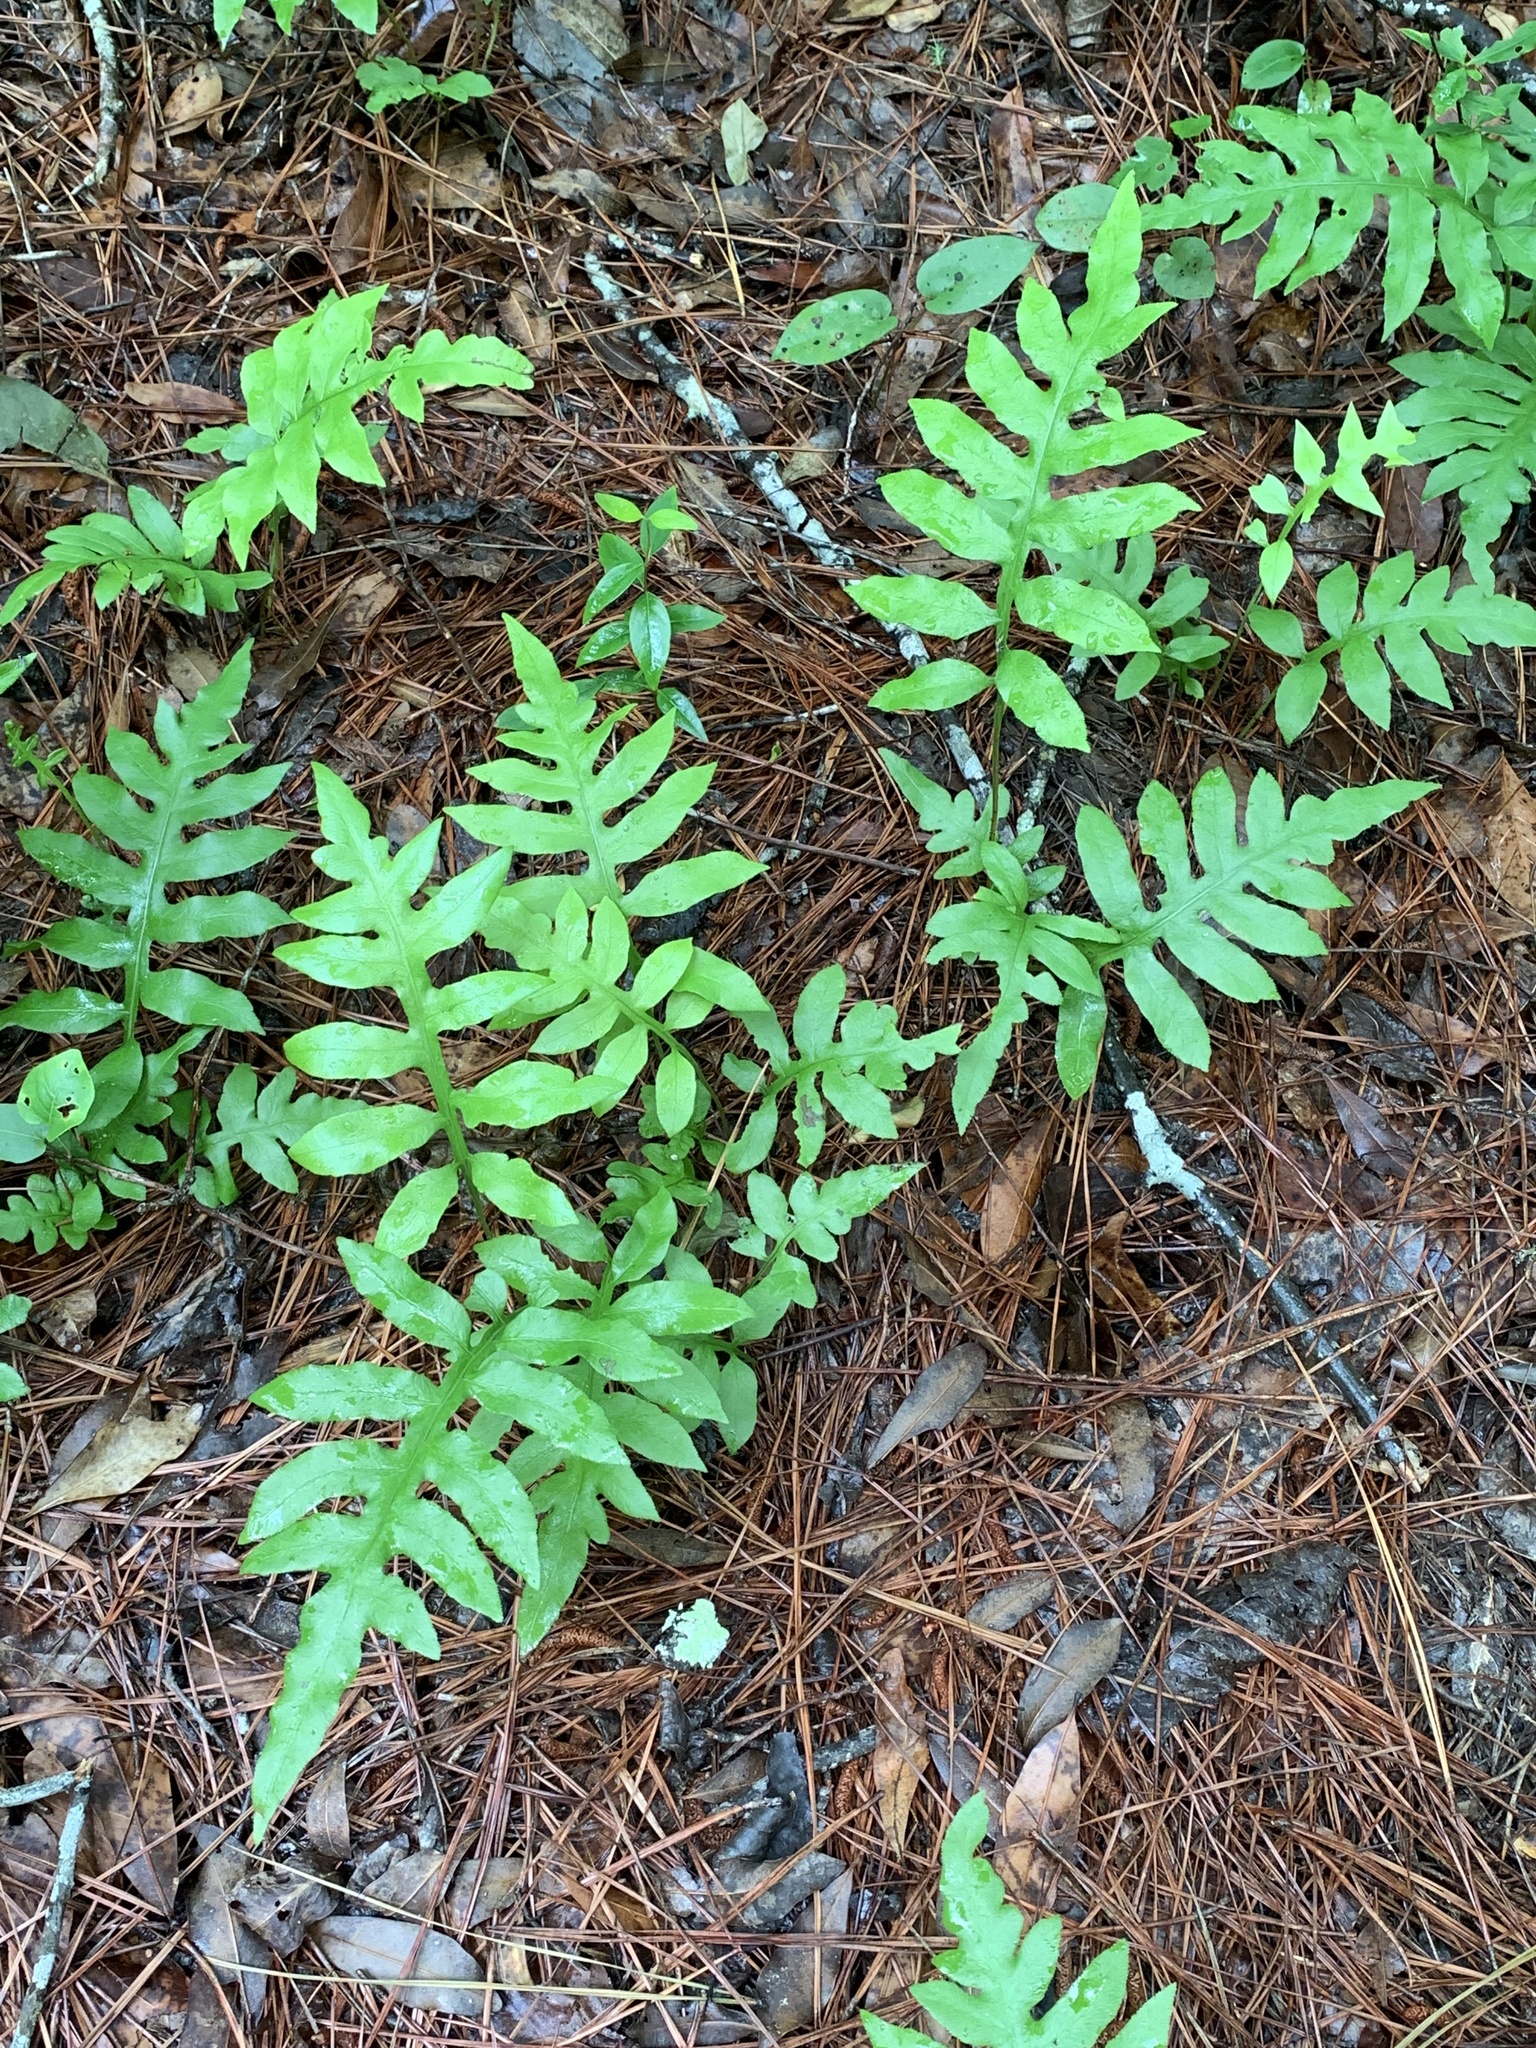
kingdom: Plantae
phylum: Tracheophyta
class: Polypodiopsida
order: Polypodiales
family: Blechnaceae
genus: Lorinseria
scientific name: Lorinseria areolata
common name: Dwarf chain fern
